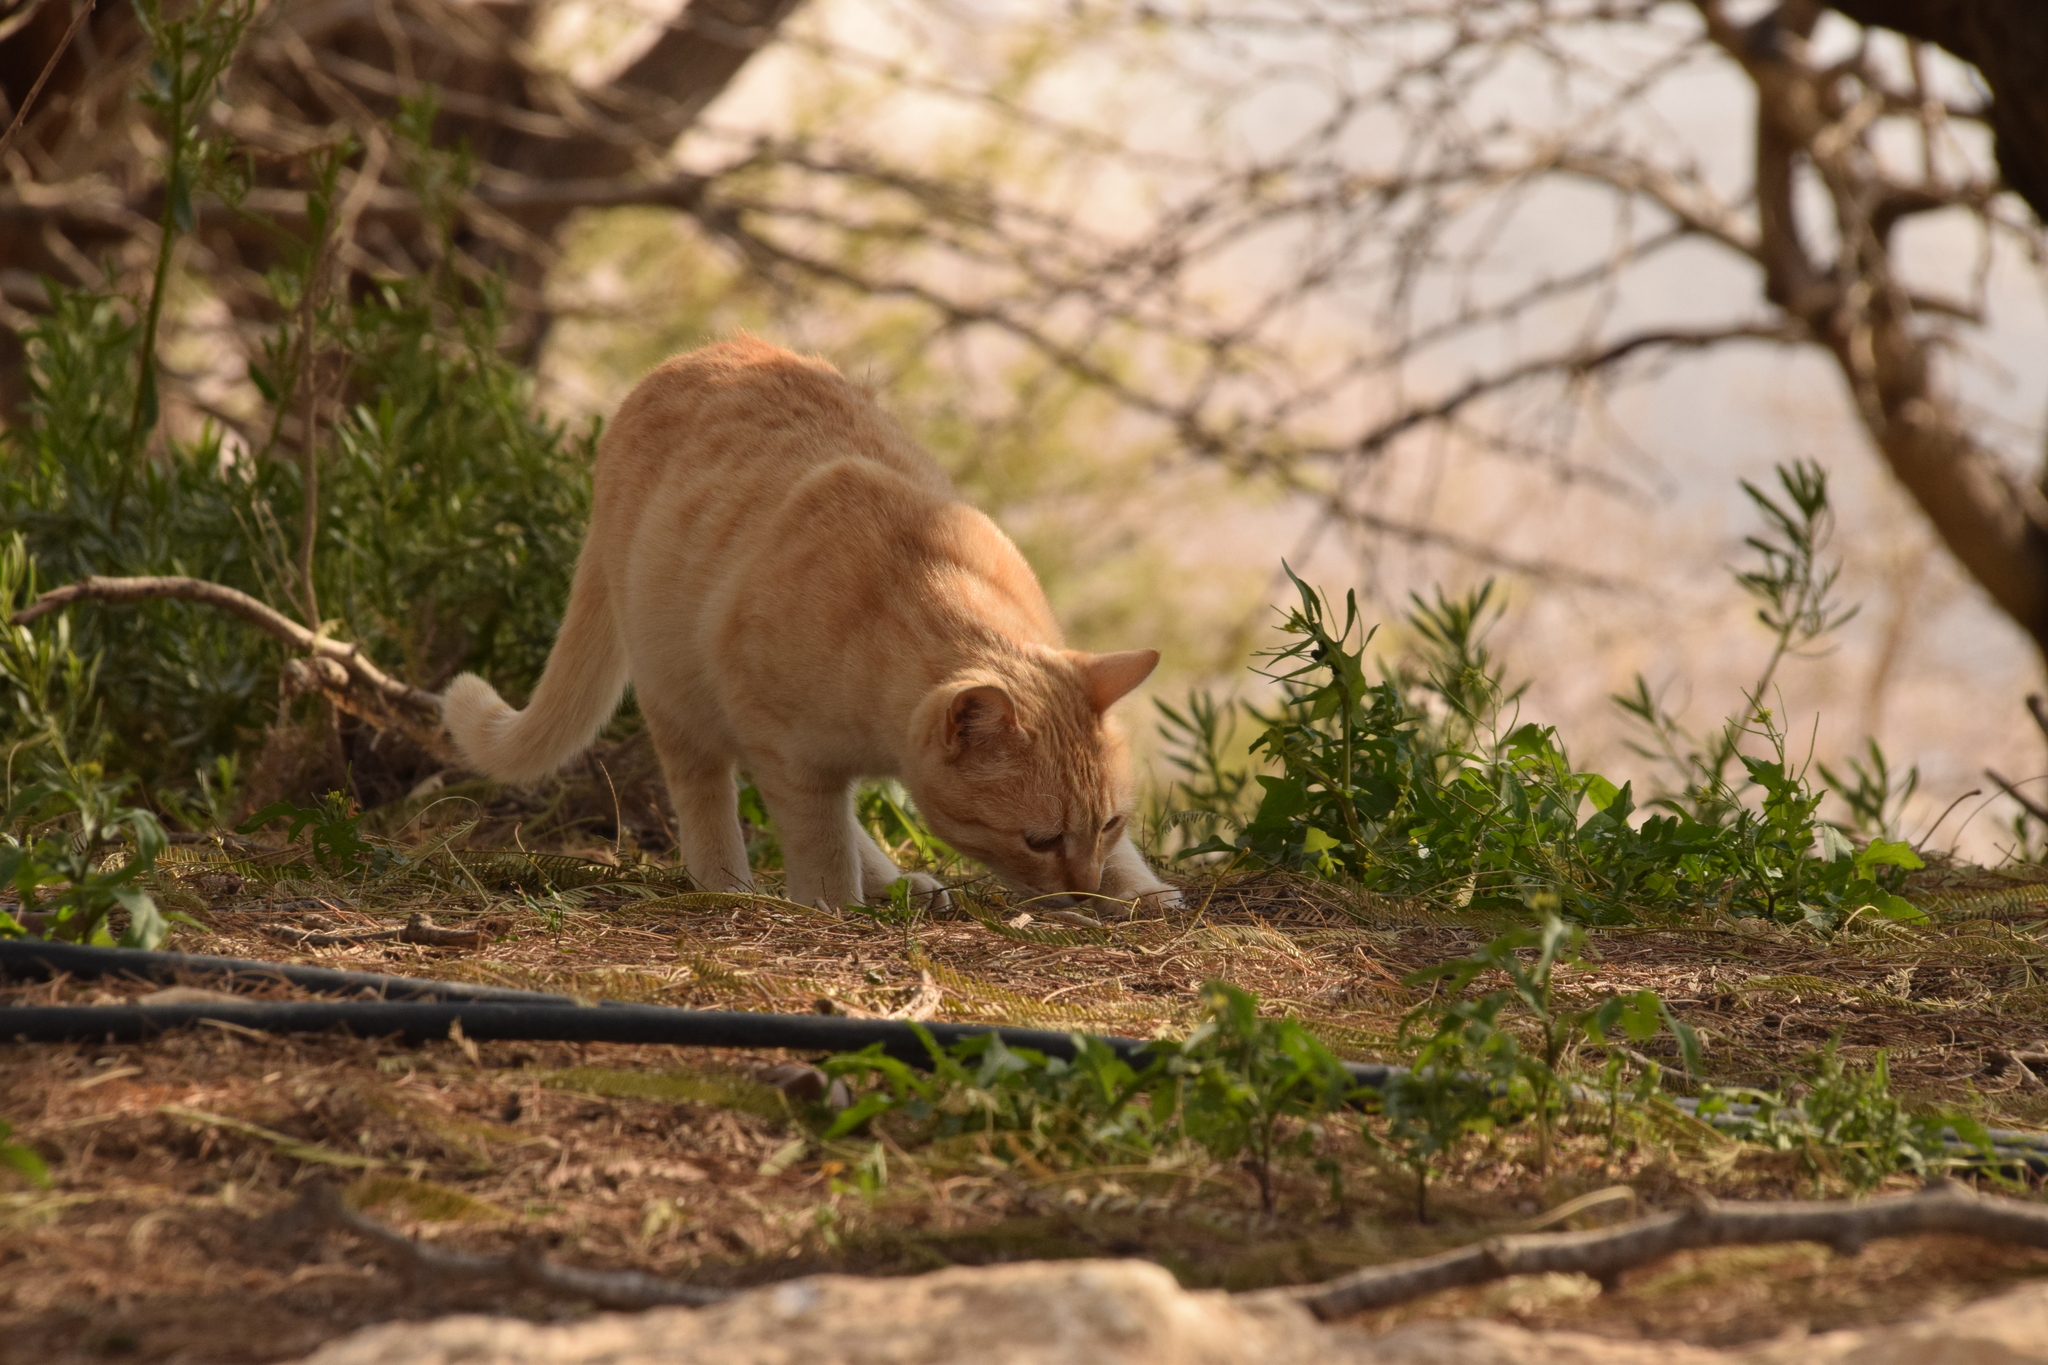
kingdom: Animalia
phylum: Chordata
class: Mammalia
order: Carnivora
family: Felidae
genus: Felis
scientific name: Felis catus
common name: Domestic cat
